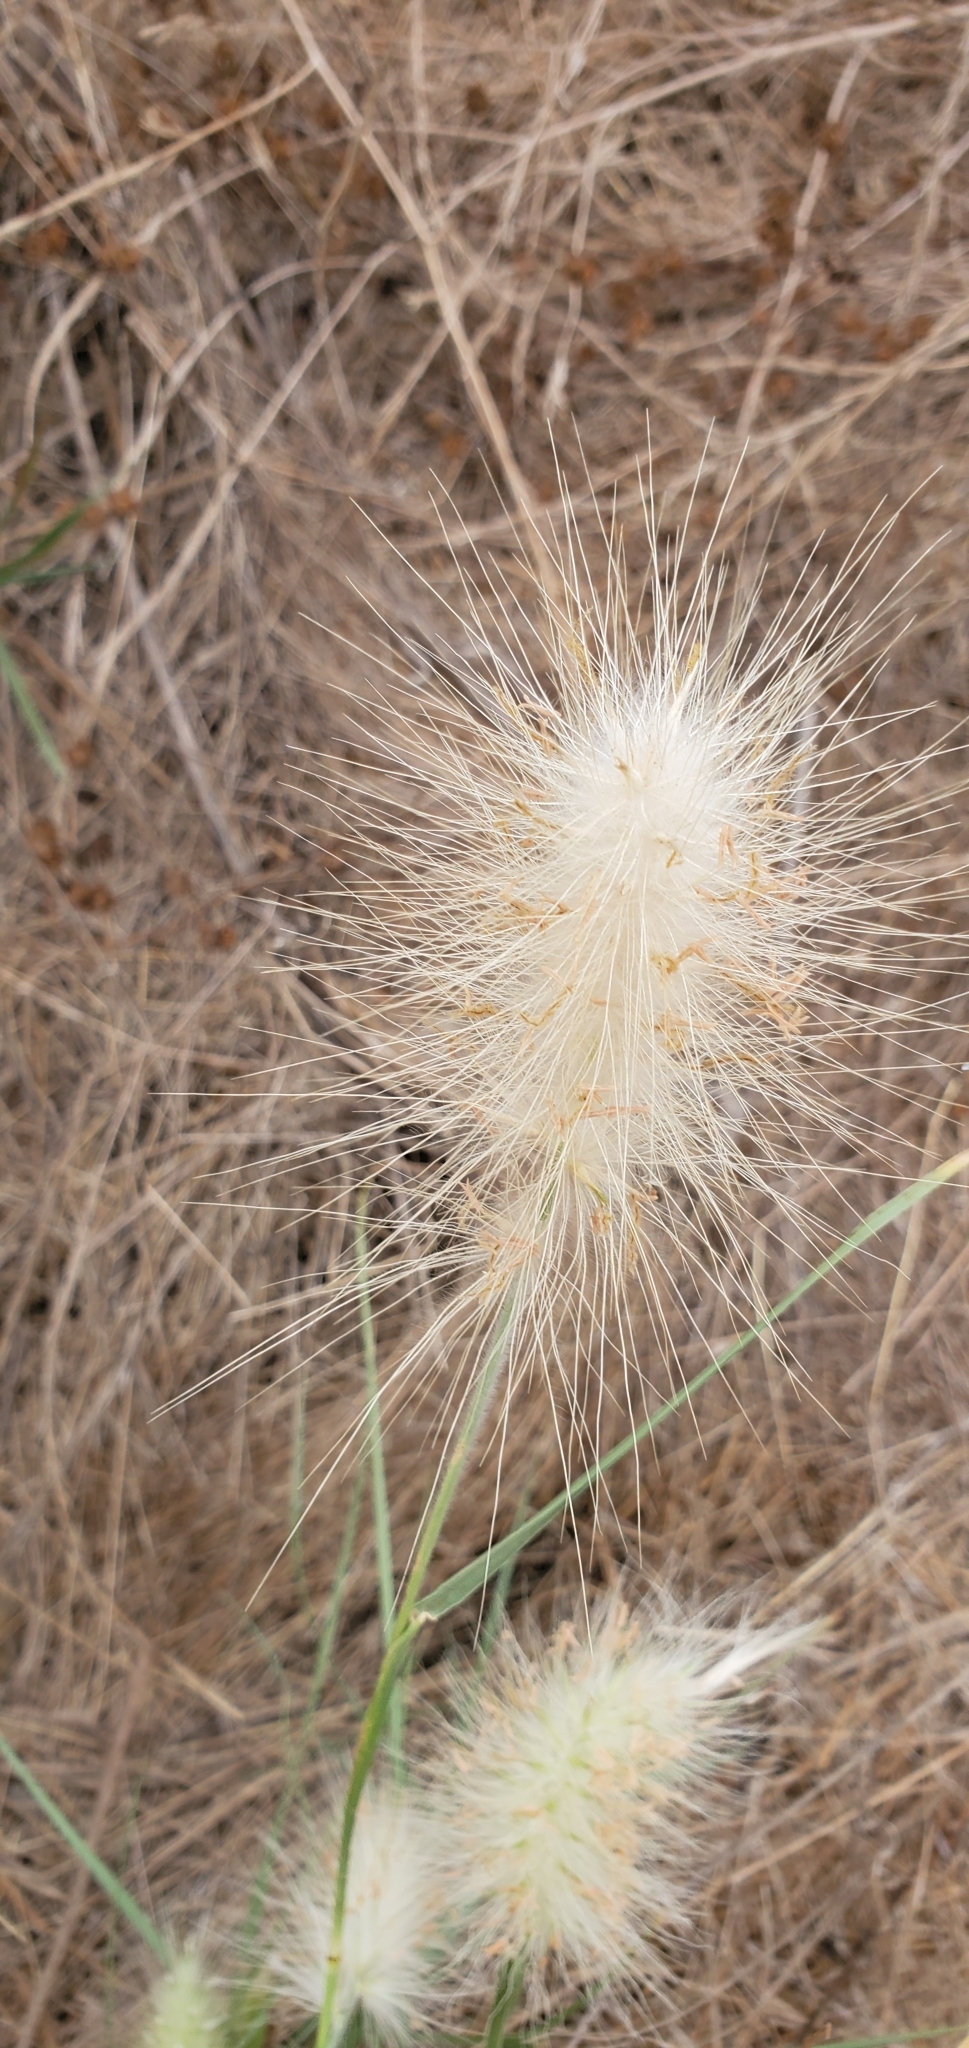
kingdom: Plantae
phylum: Tracheophyta
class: Liliopsida
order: Poales
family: Poaceae
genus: Cenchrus
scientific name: Cenchrus longisetus
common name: Feathertop
